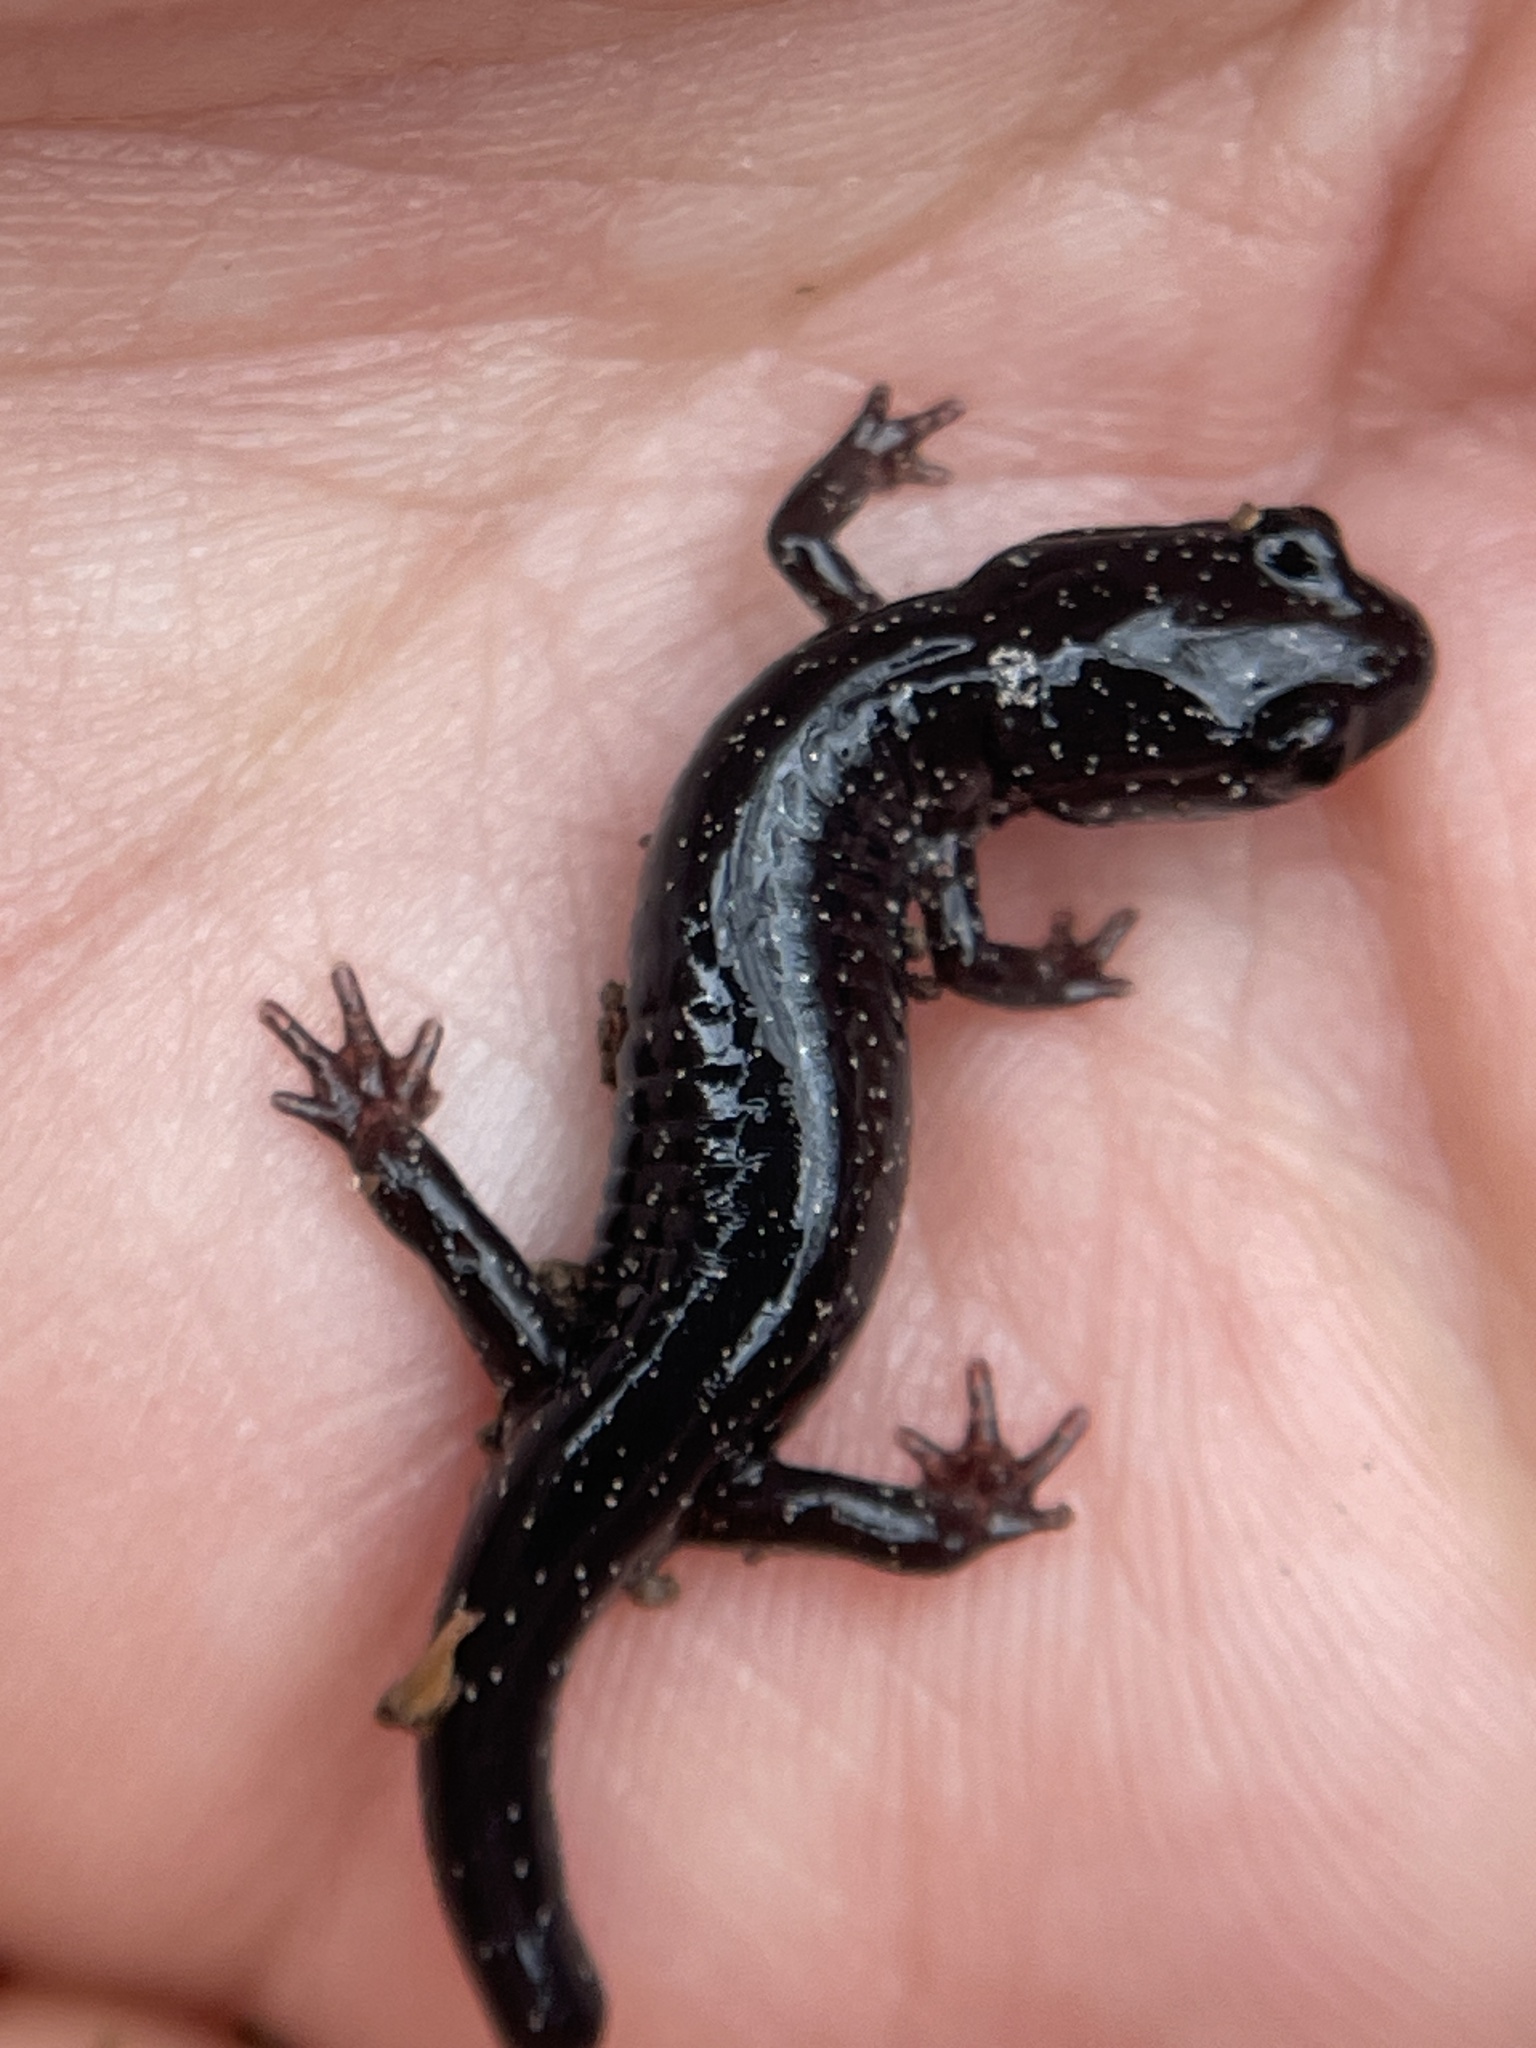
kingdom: Animalia
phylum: Chordata
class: Amphibia
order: Caudata
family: Plethodontidae
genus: Plethodon
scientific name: Plethodon glutinosus
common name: Northern slimy salamander
